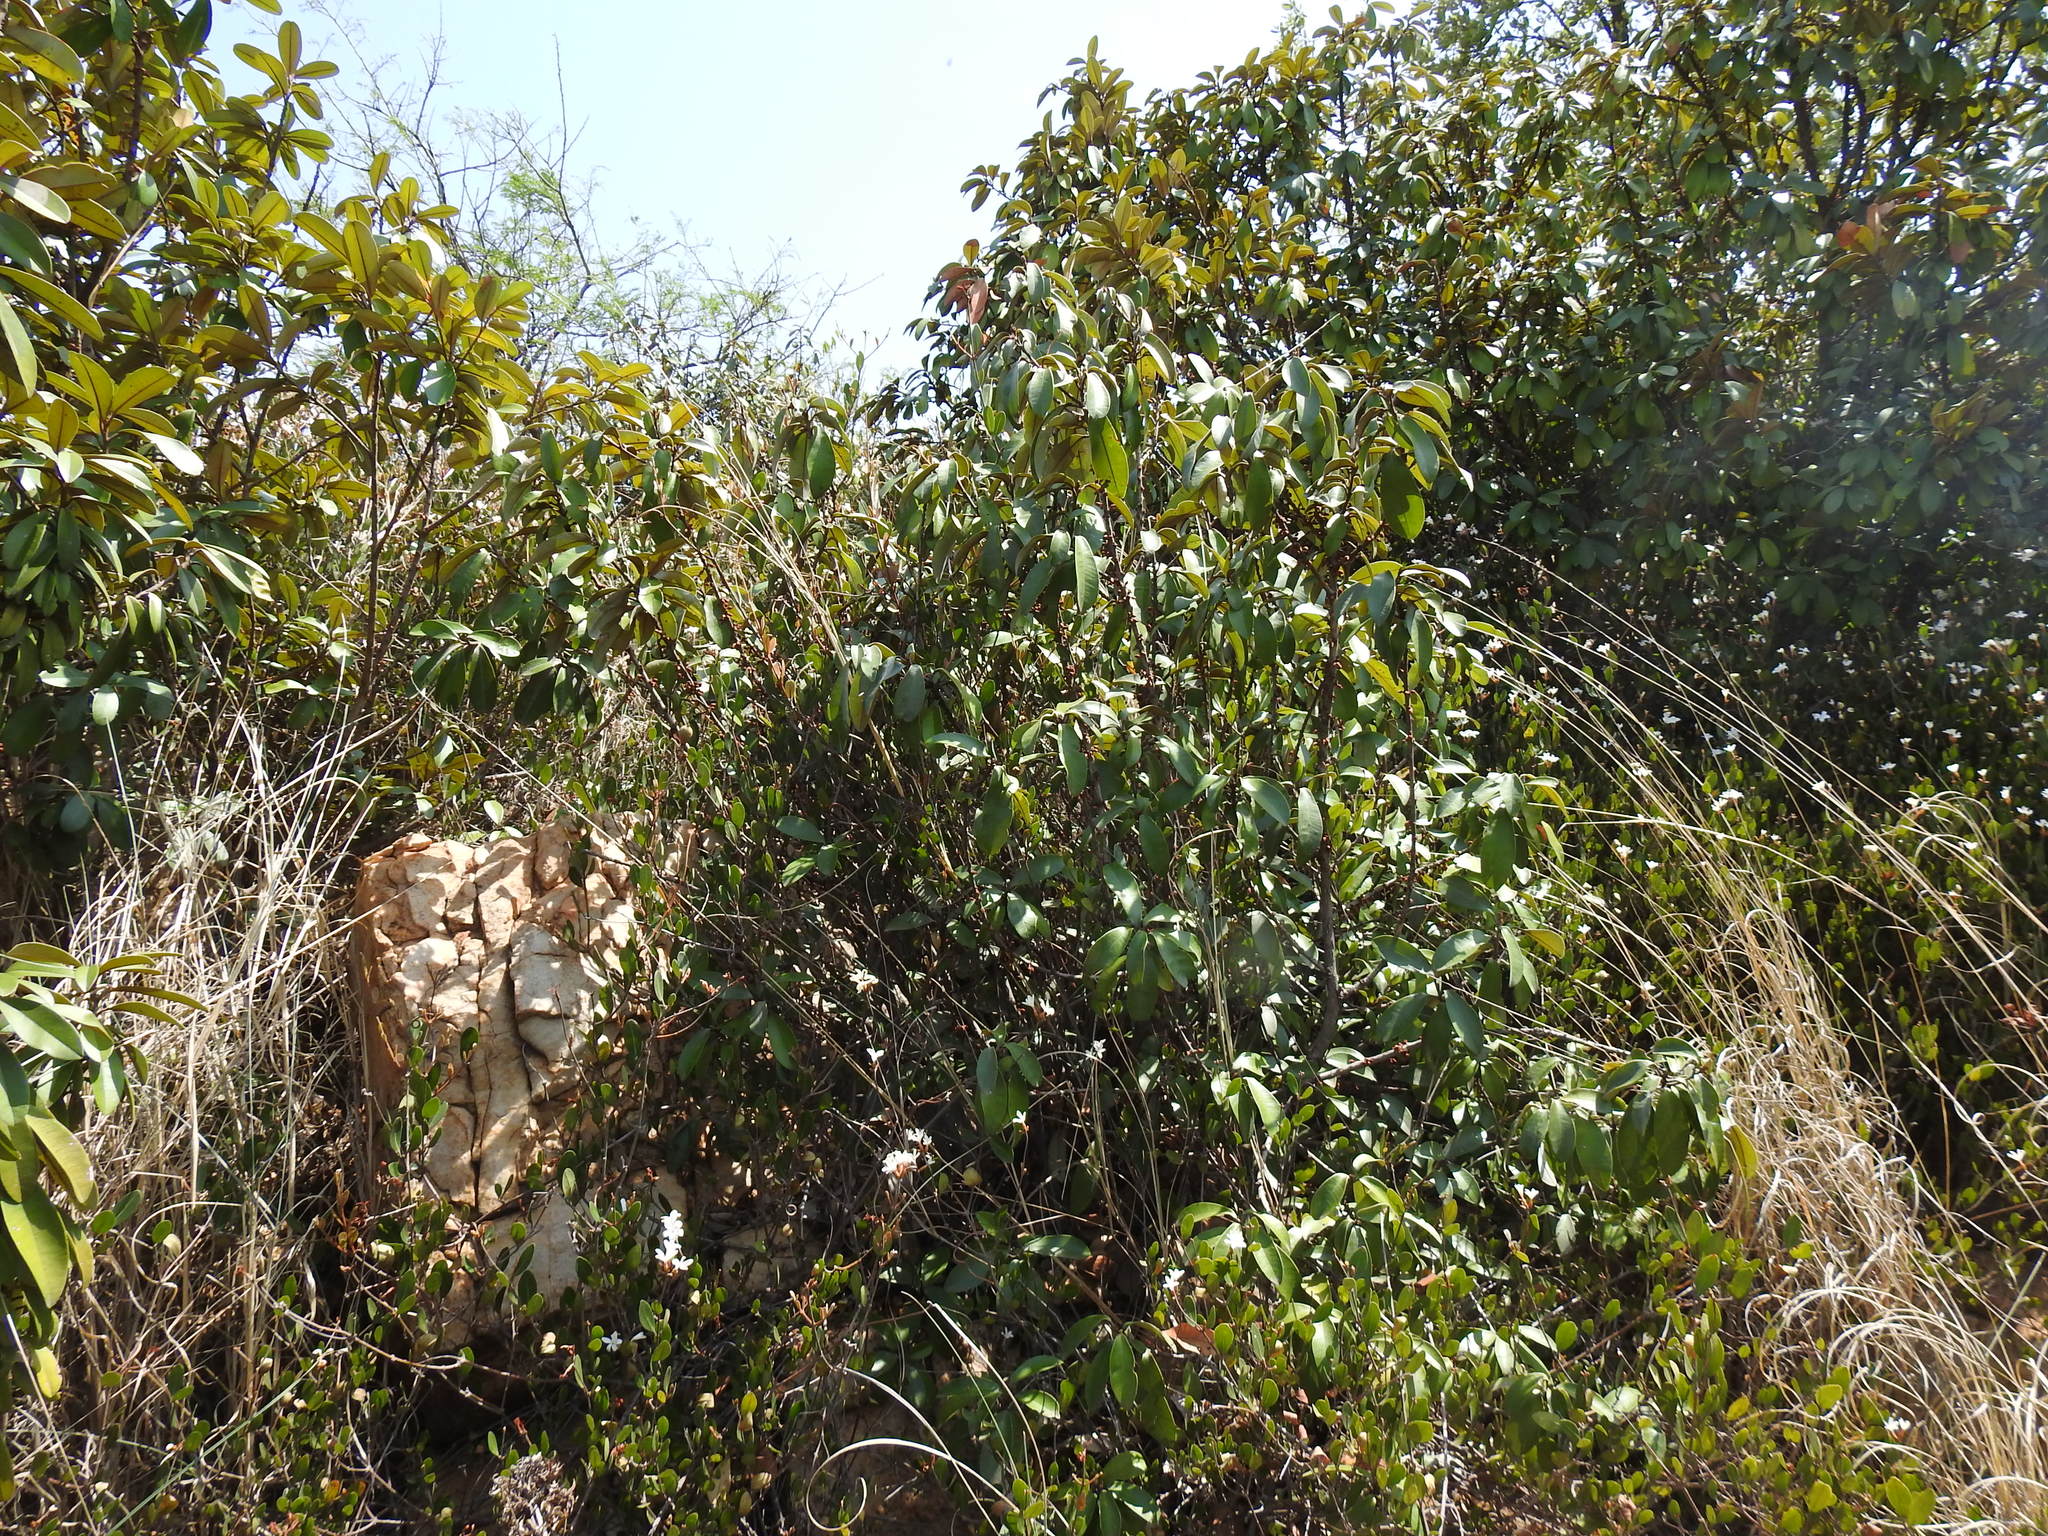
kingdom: Plantae
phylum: Tracheophyta
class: Magnoliopsida
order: Ericales
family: Sapotaceae
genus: Englerophytum
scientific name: Englerophytum magalismontanum
